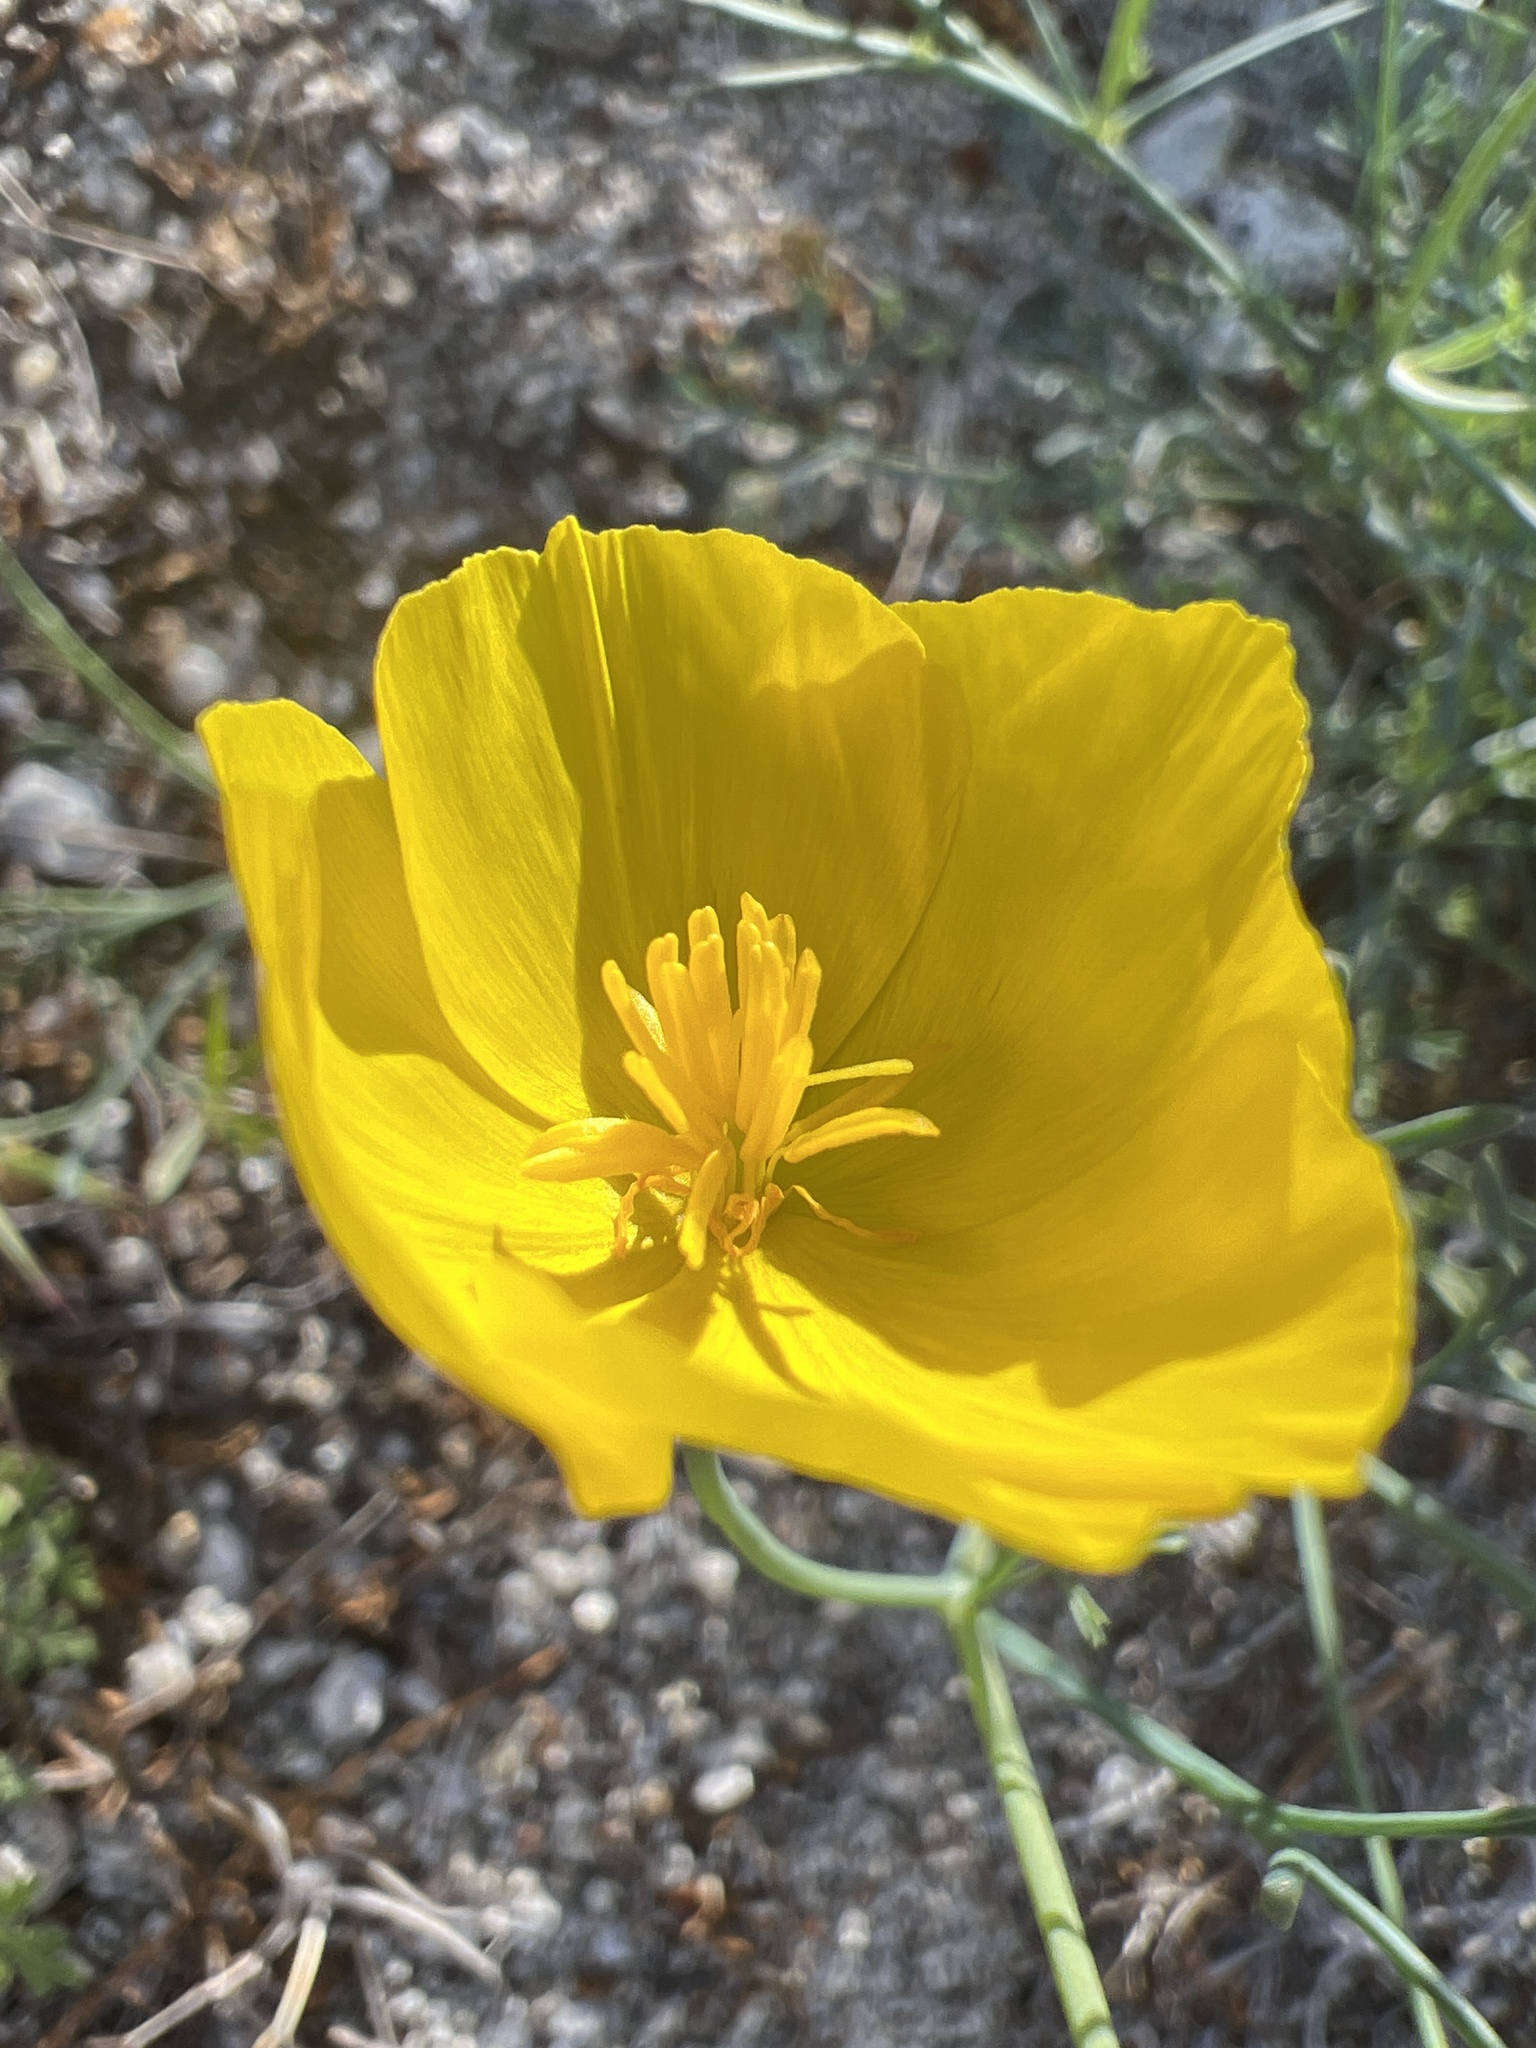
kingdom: Plantae
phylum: Tracheophyta
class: Magnoliopsida
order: Ranunculales
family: Papaveraceae
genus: Eschscholzia
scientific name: Eschscholzia parishii
